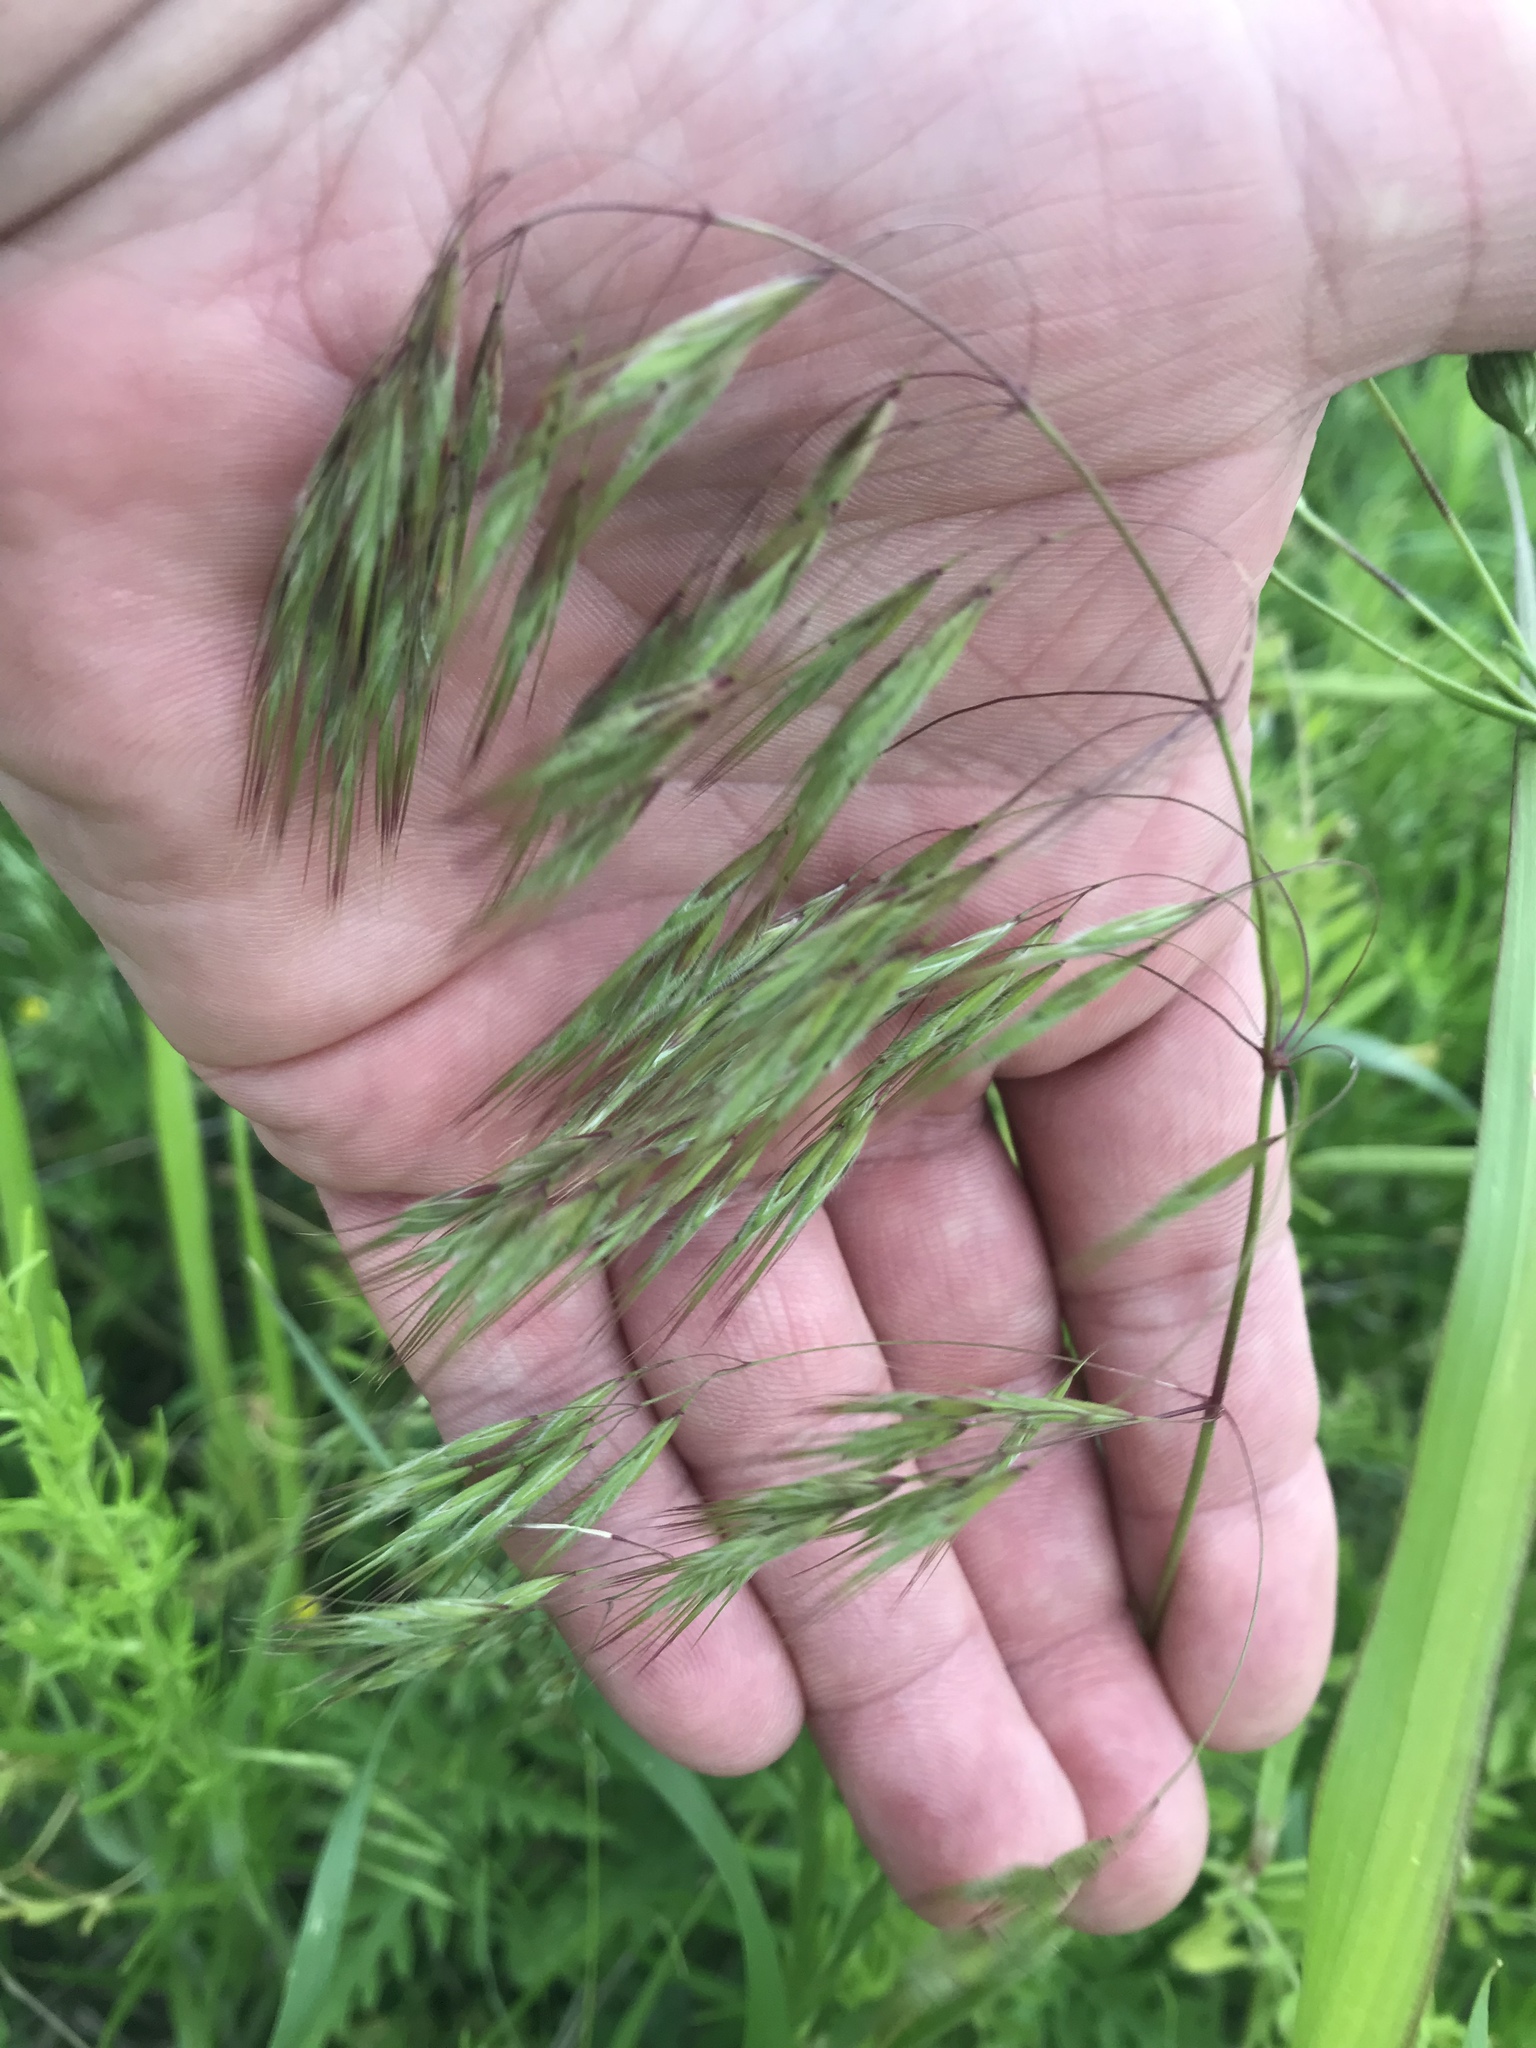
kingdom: Plantae
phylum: Tracheophyta
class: Liliopsida
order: Poales
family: Poaceae
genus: Bromus
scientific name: Bromus tectorum
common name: Cheatgrass
